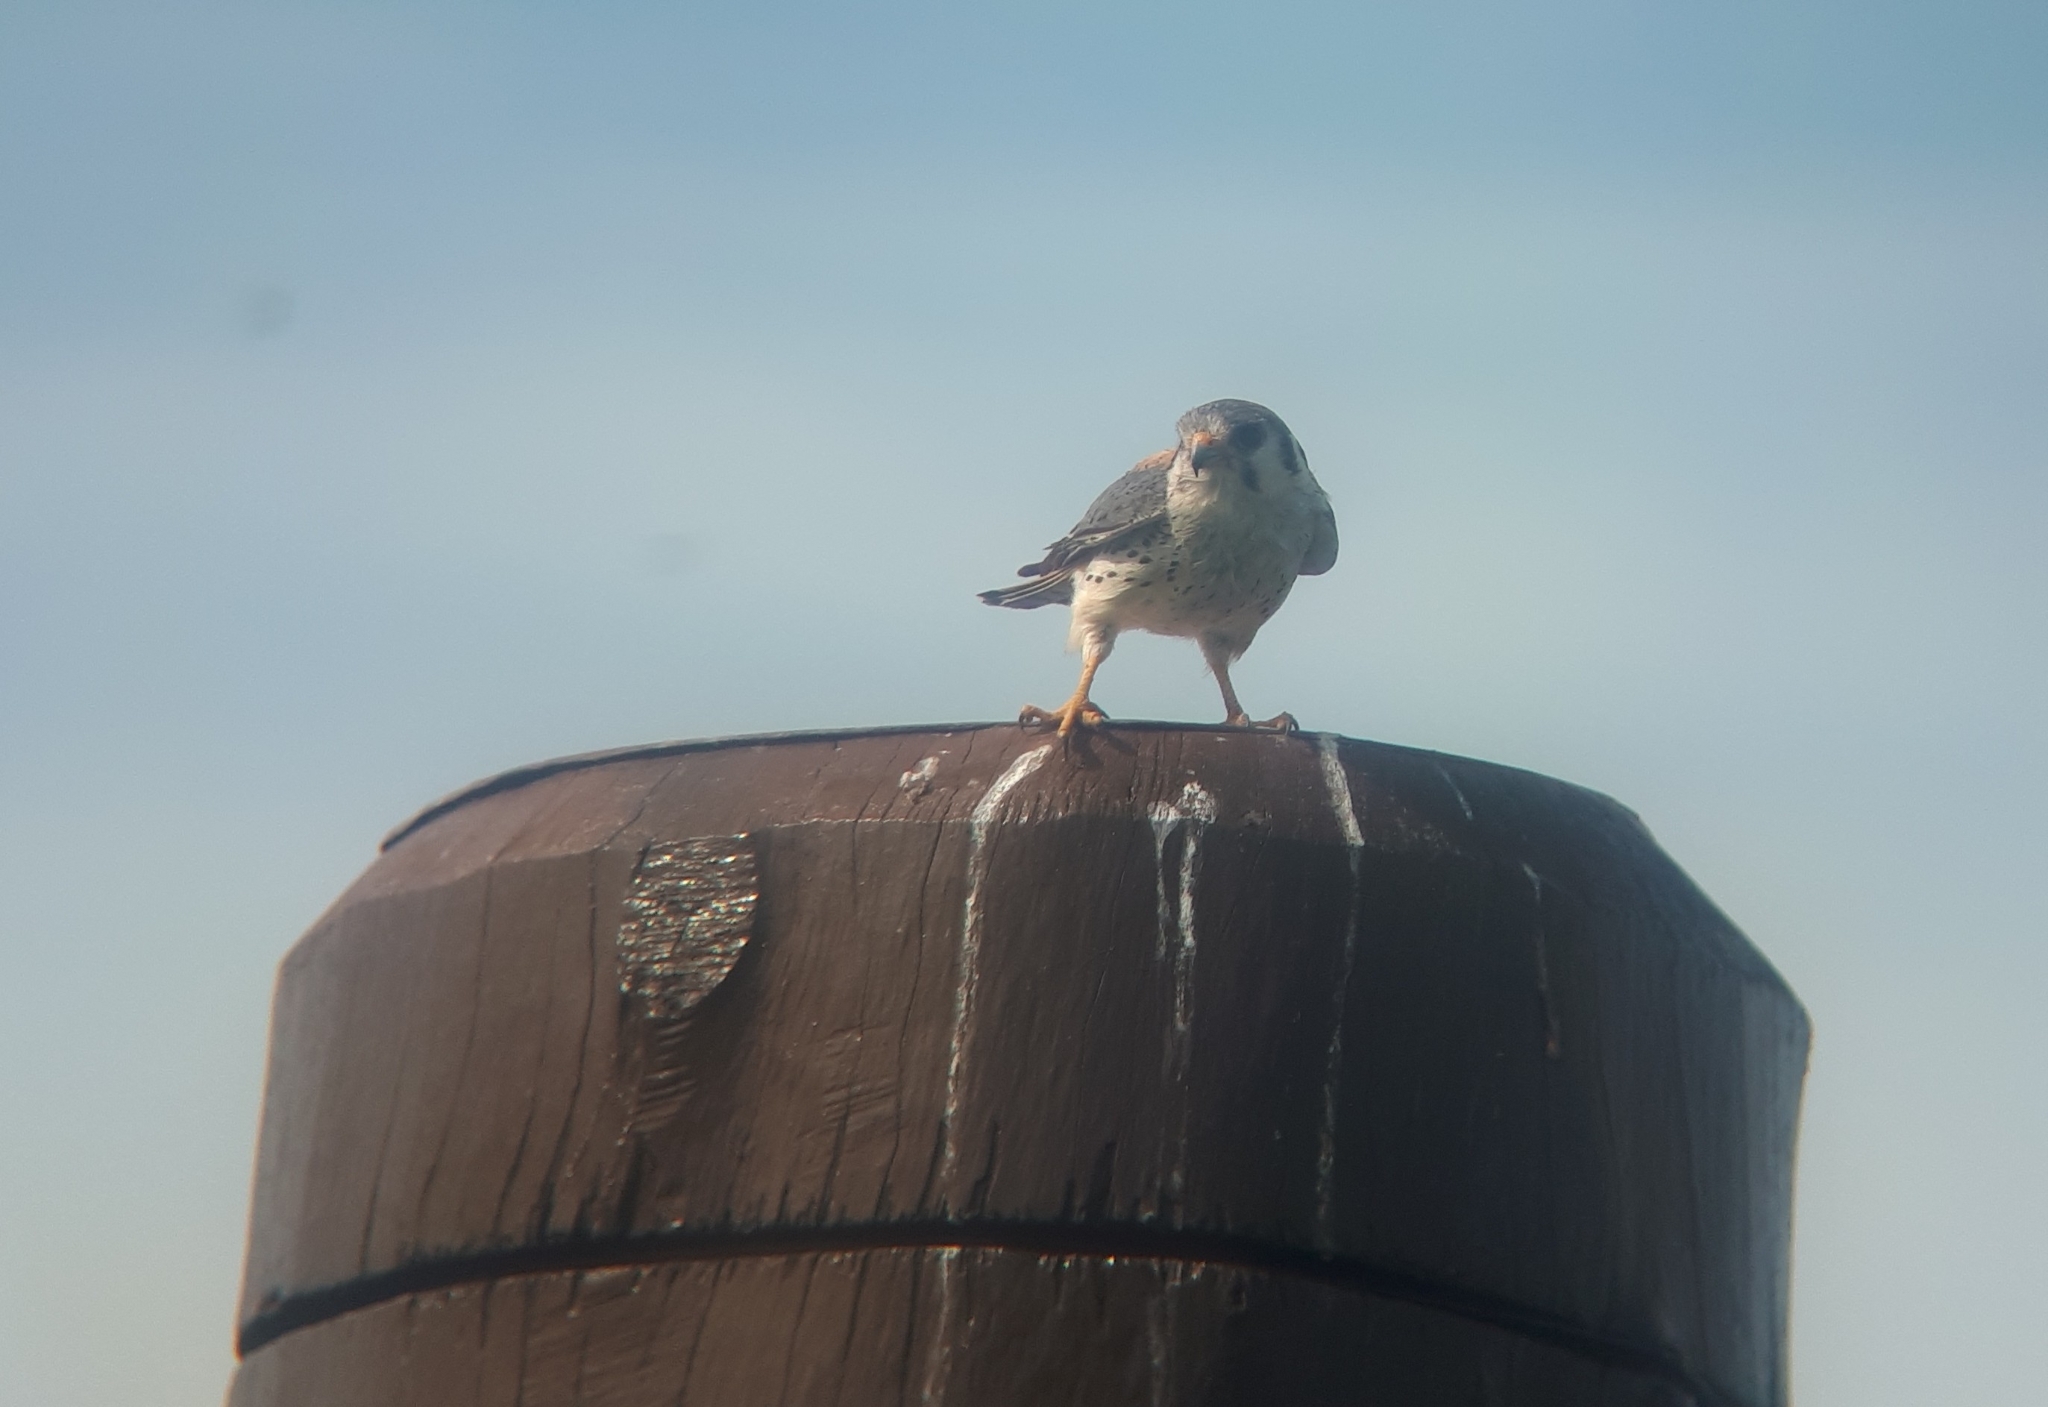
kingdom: Animalia
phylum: Chordata
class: Aves
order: Falconiformes
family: Falconidae
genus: Falco
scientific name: Falco sparverius
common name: American kestrel
